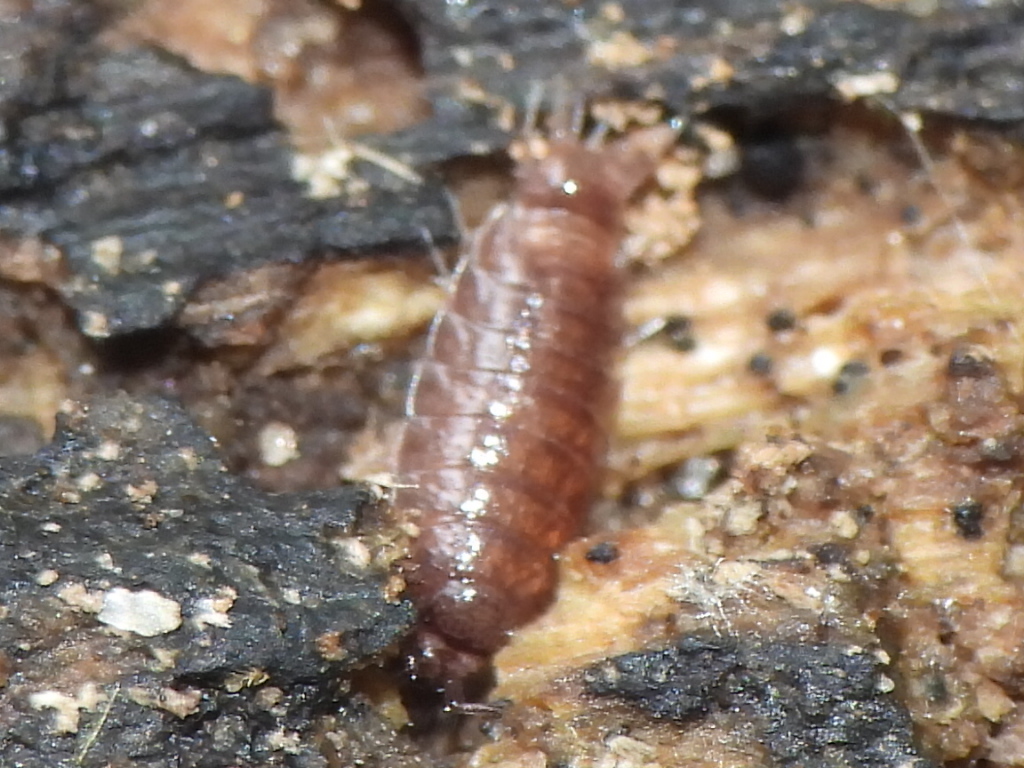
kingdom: Animalia
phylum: Arthropoda
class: Malacostraca
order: Isopoda
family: Trichoniscidae
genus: Hyloniscus
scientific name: Hyloniscus riparius
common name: Isopod
